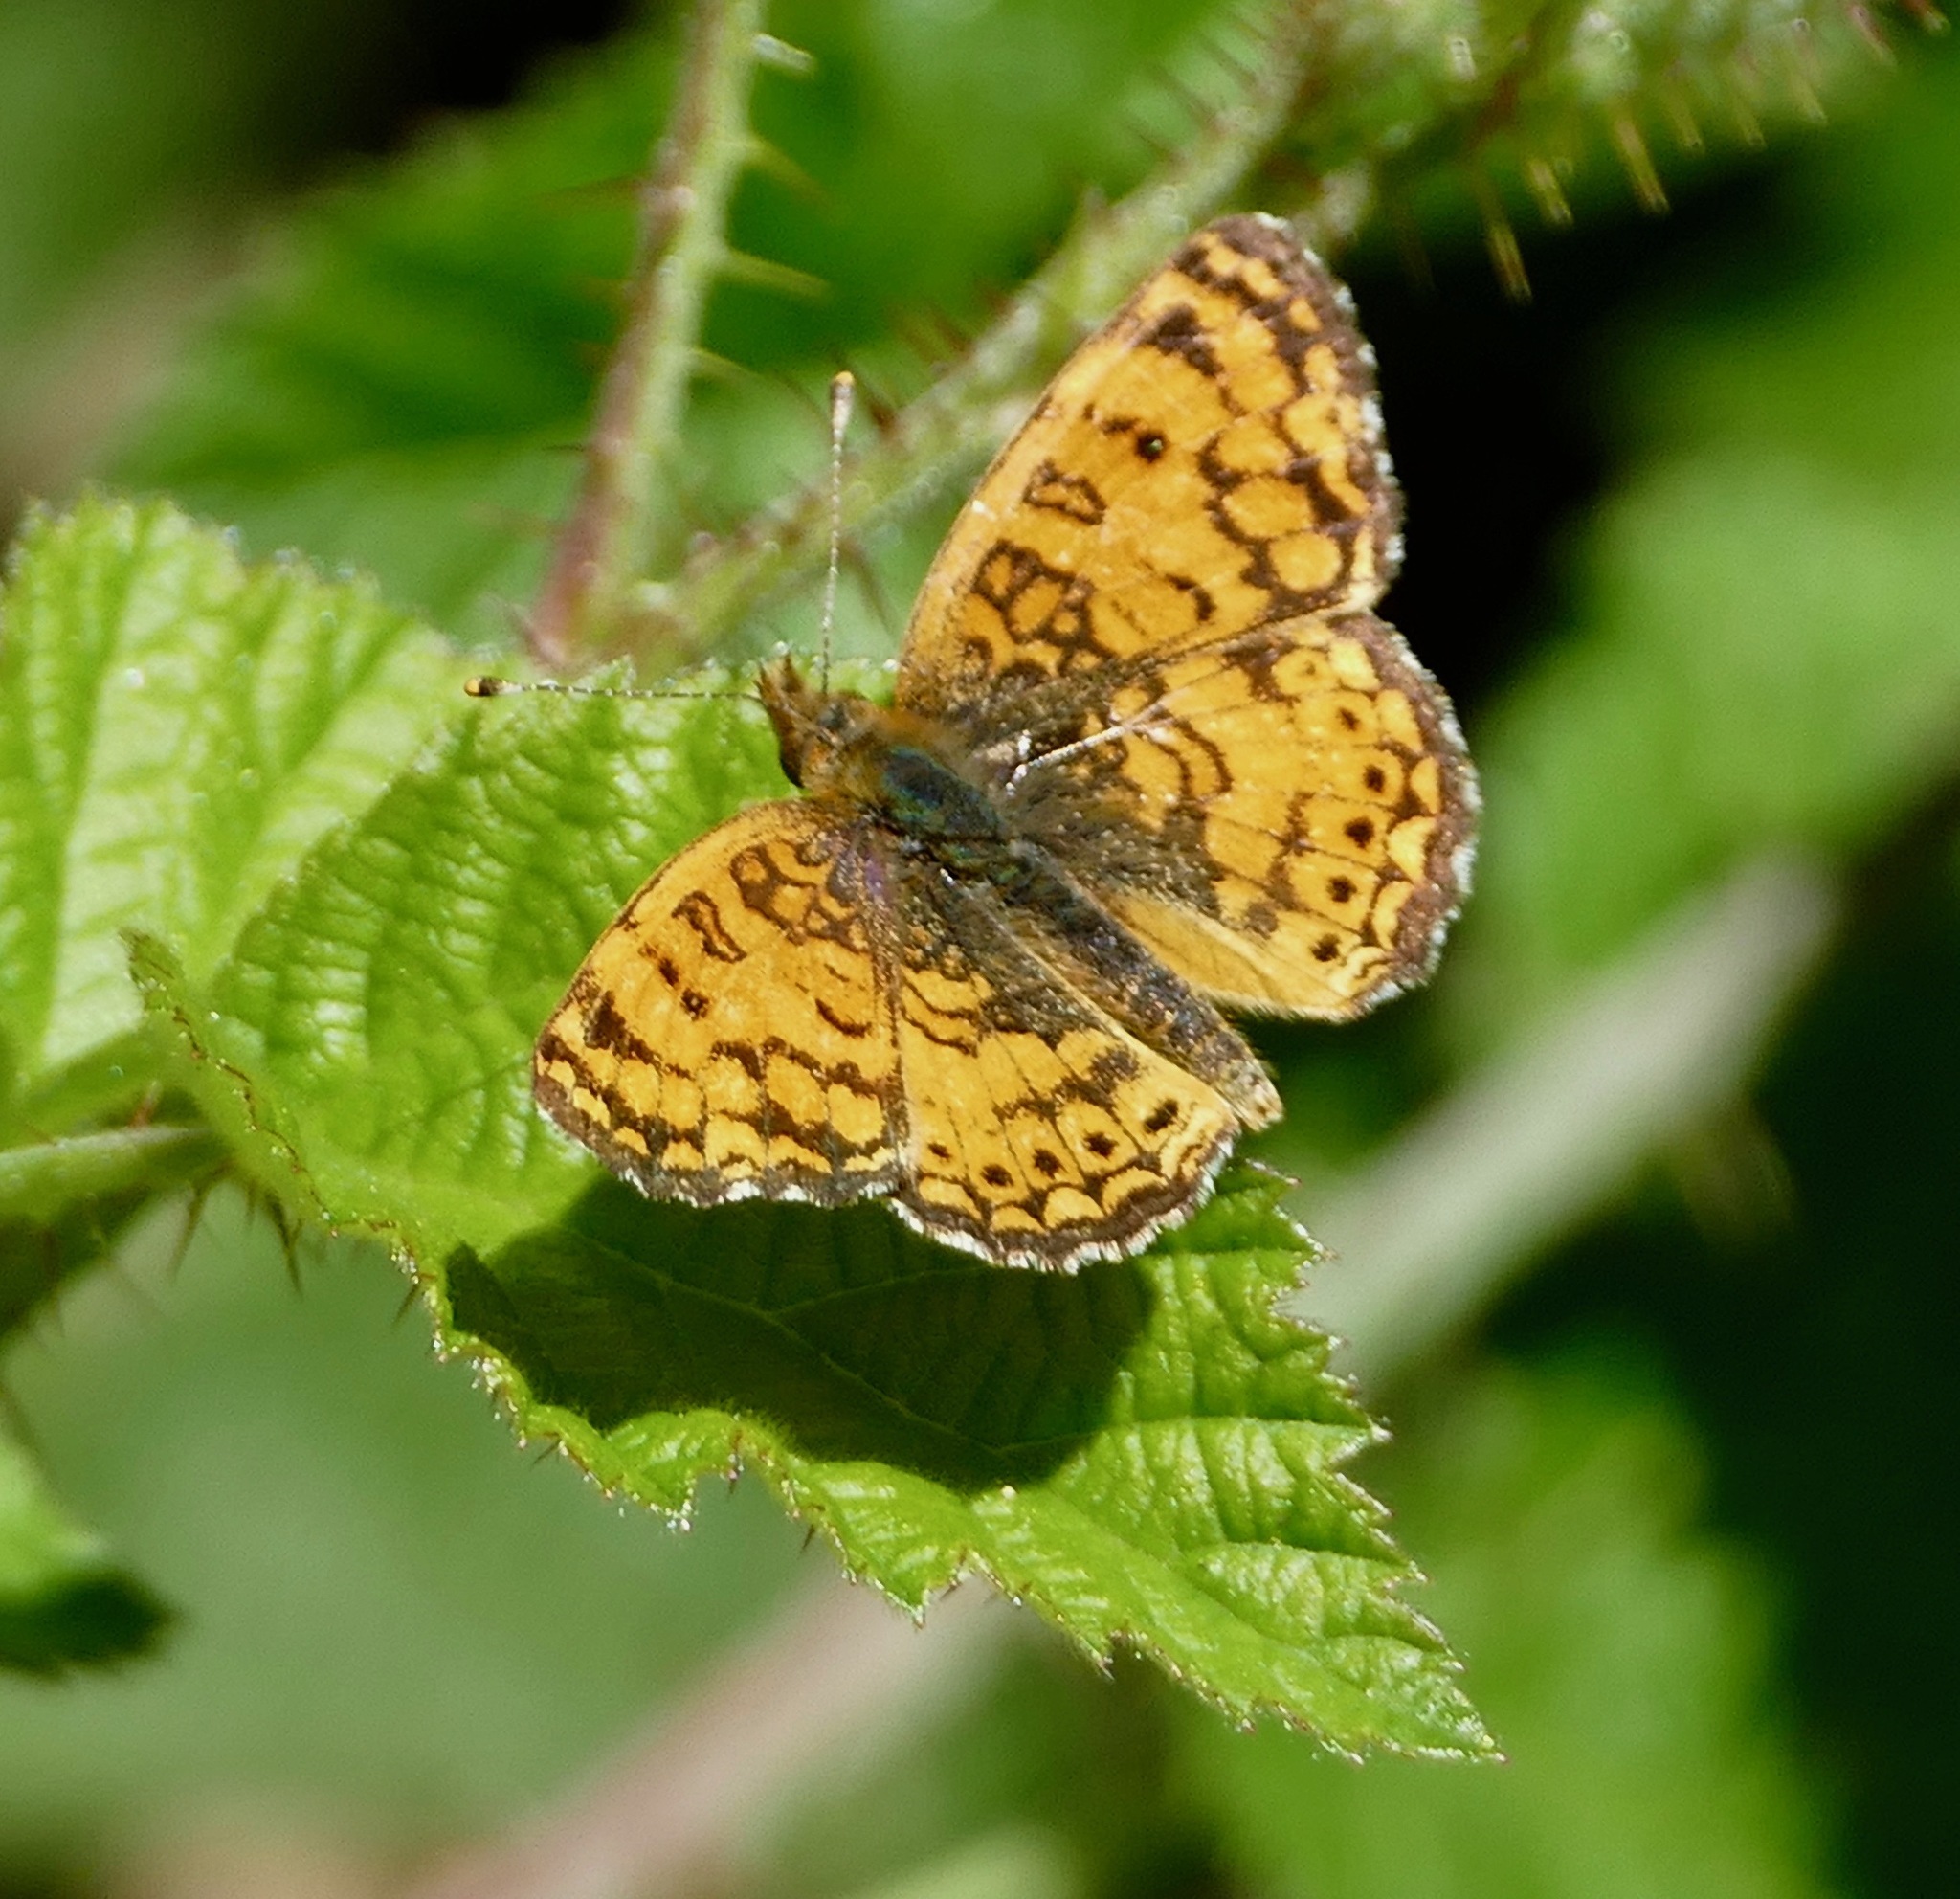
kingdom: Animalia
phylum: Arthropoda
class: Insecta
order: Lepidoptera
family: Nymphalidae
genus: Eresia
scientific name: Eresia aveyrona
